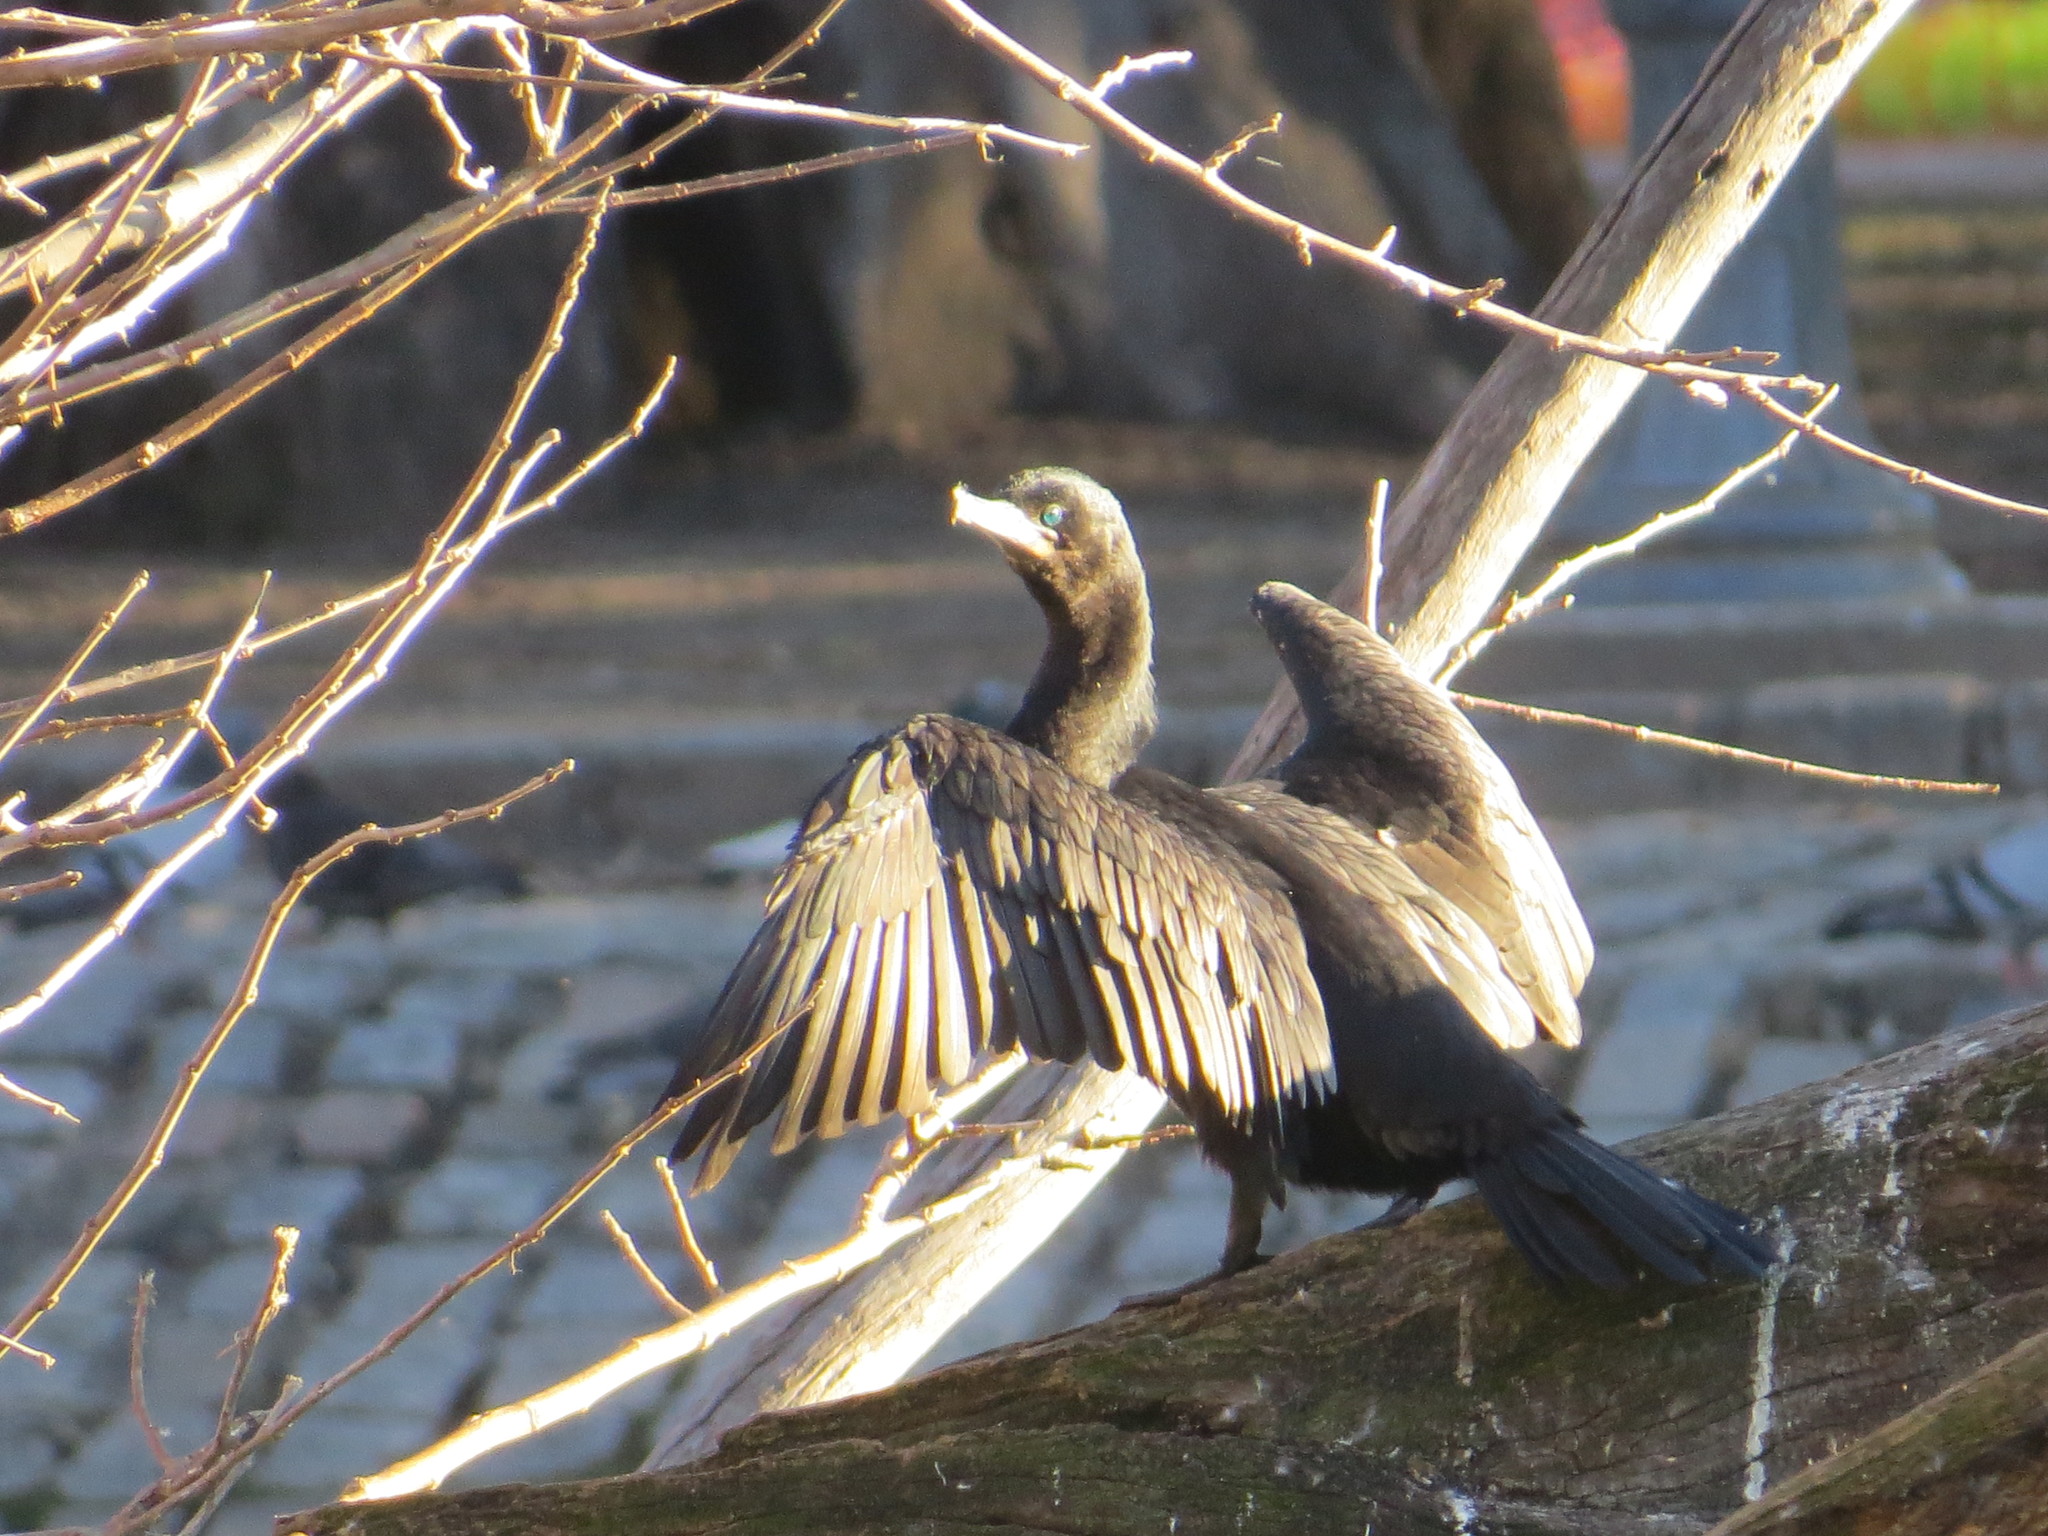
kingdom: Animalia
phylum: Chordata
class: Aves
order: Suliformes
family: Phalacrocoracidae
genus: Phalacrocorax
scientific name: Phalacrocorax brasilianus
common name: Neotropic cormorant
